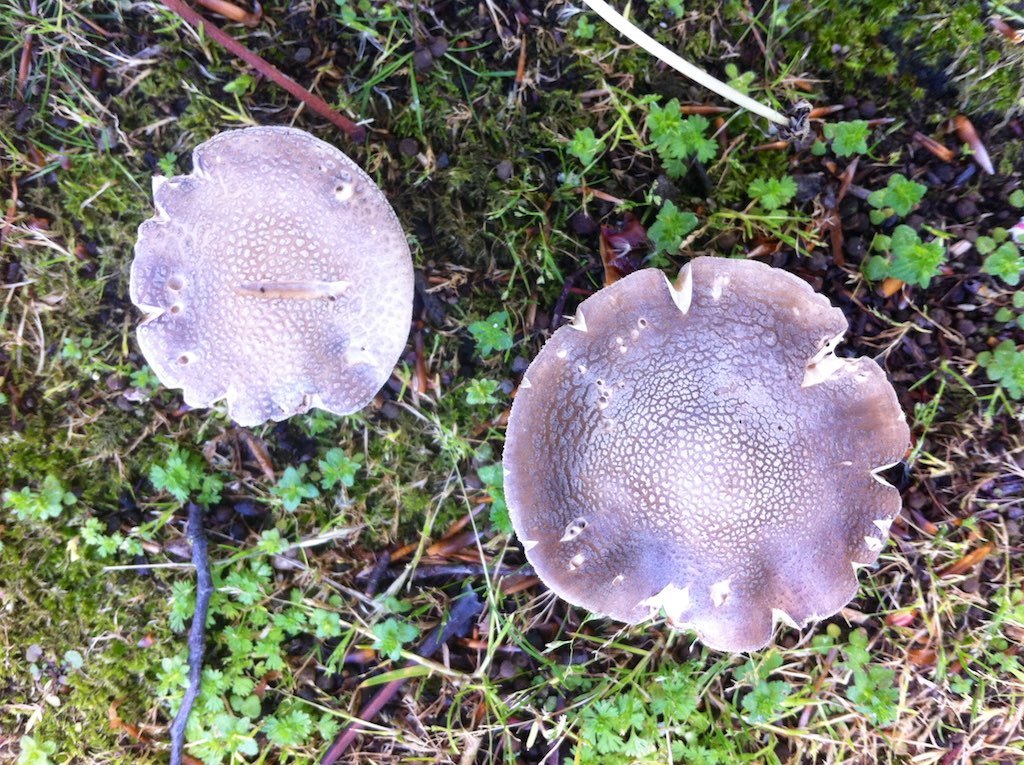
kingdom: Fungi
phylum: Basidiomycota
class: Agaricomycetes
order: Agaricales
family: Amanitaceae
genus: Amanita
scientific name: Amanita excelsa
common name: European false blusher
